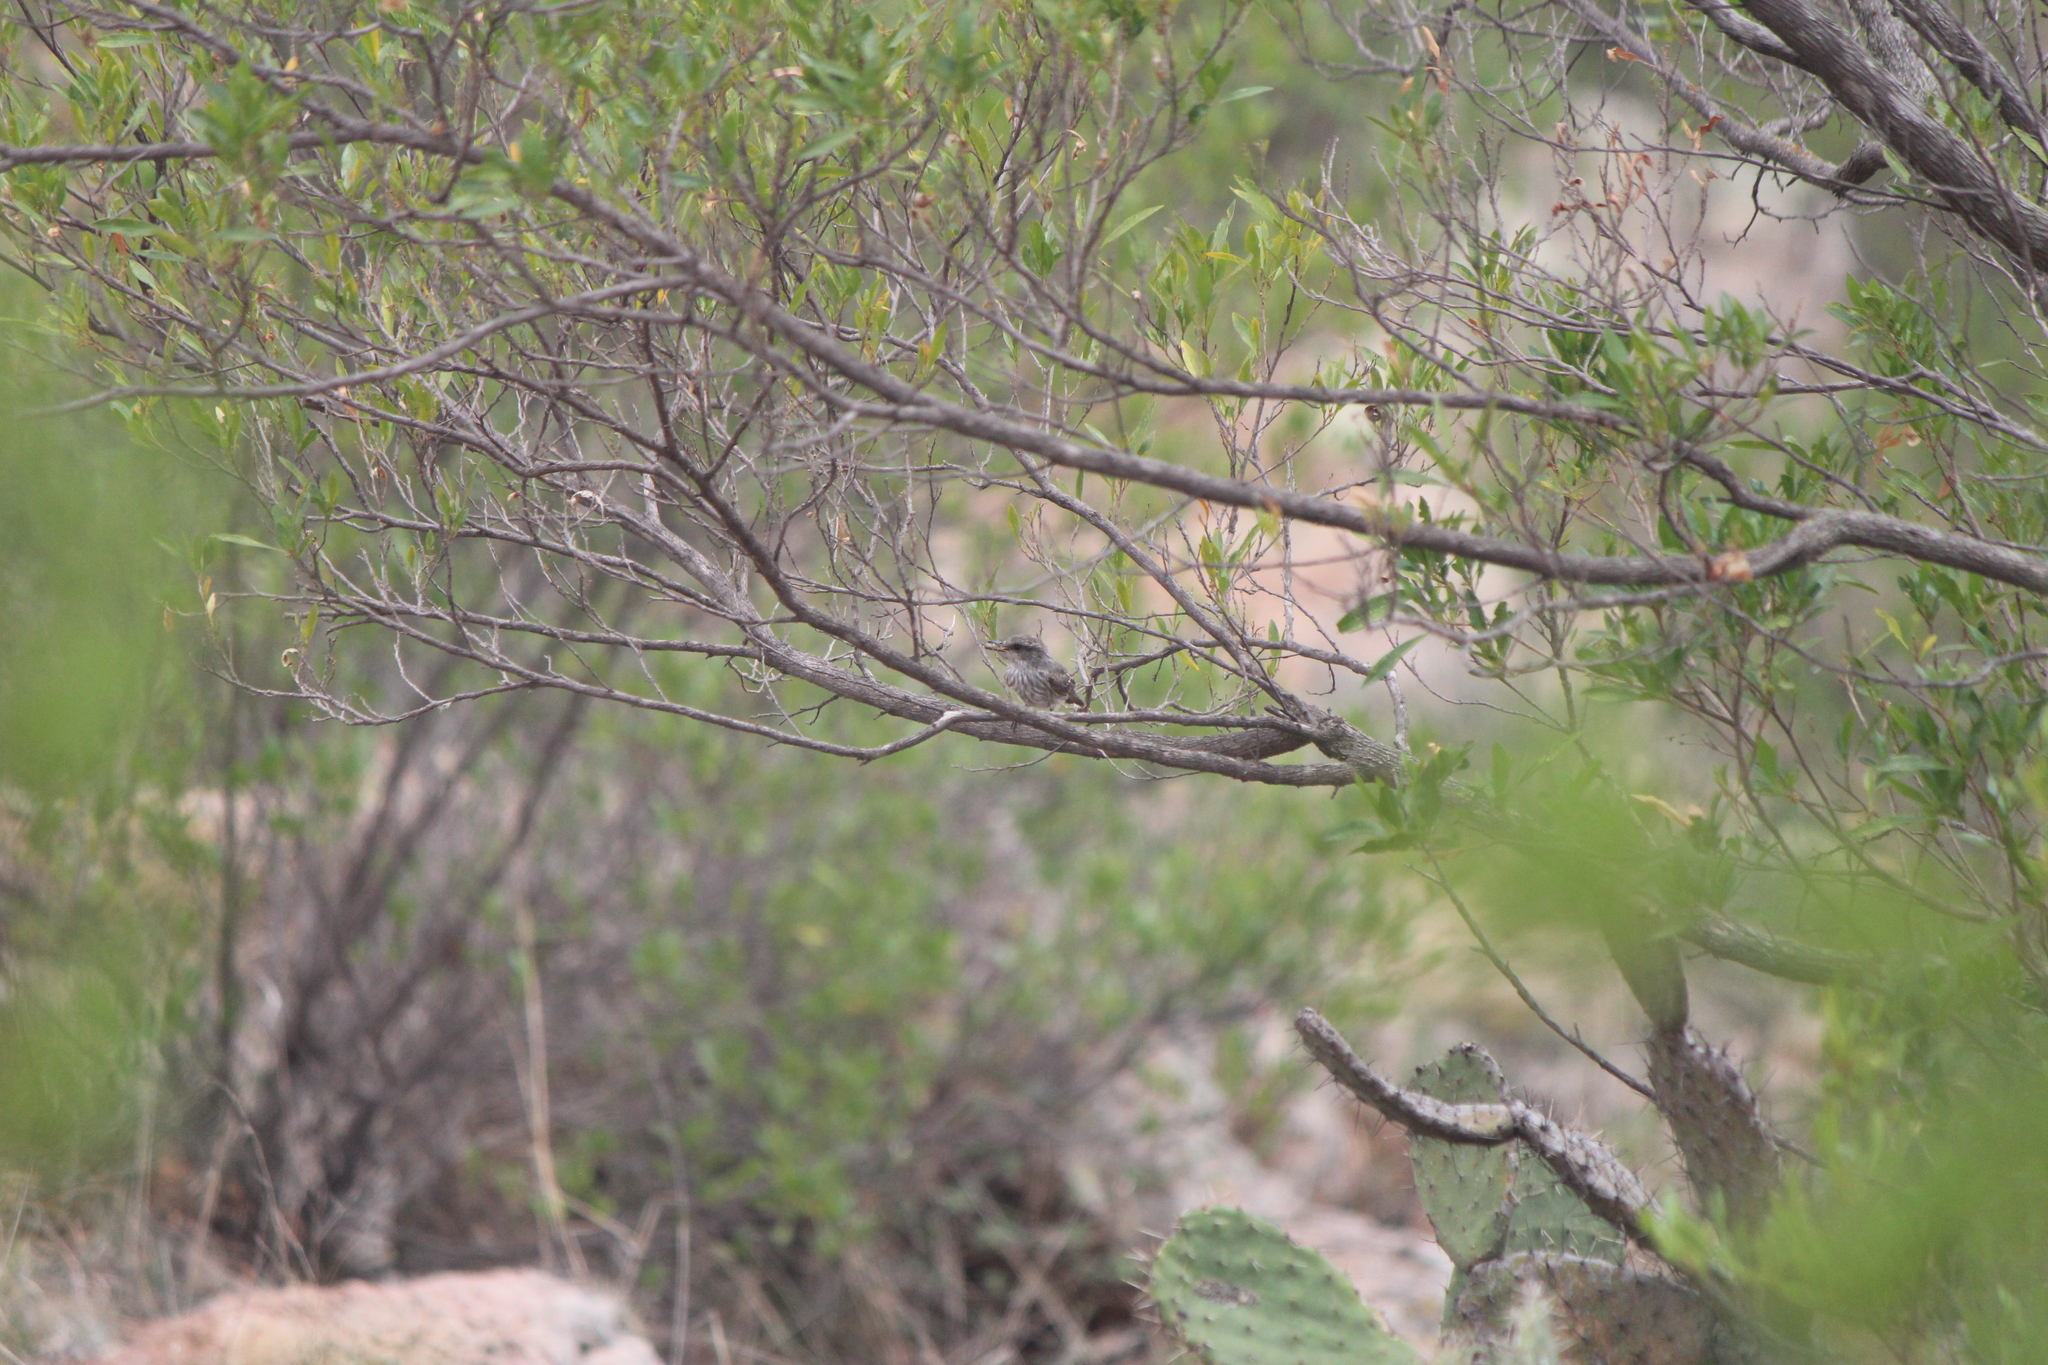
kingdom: Animalia
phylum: Chordata
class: Aves
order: Passeriformes
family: Tyrannidae
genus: Pyrocephalus
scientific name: Pyrocephalus rubinus
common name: Vermilion flycatcher
